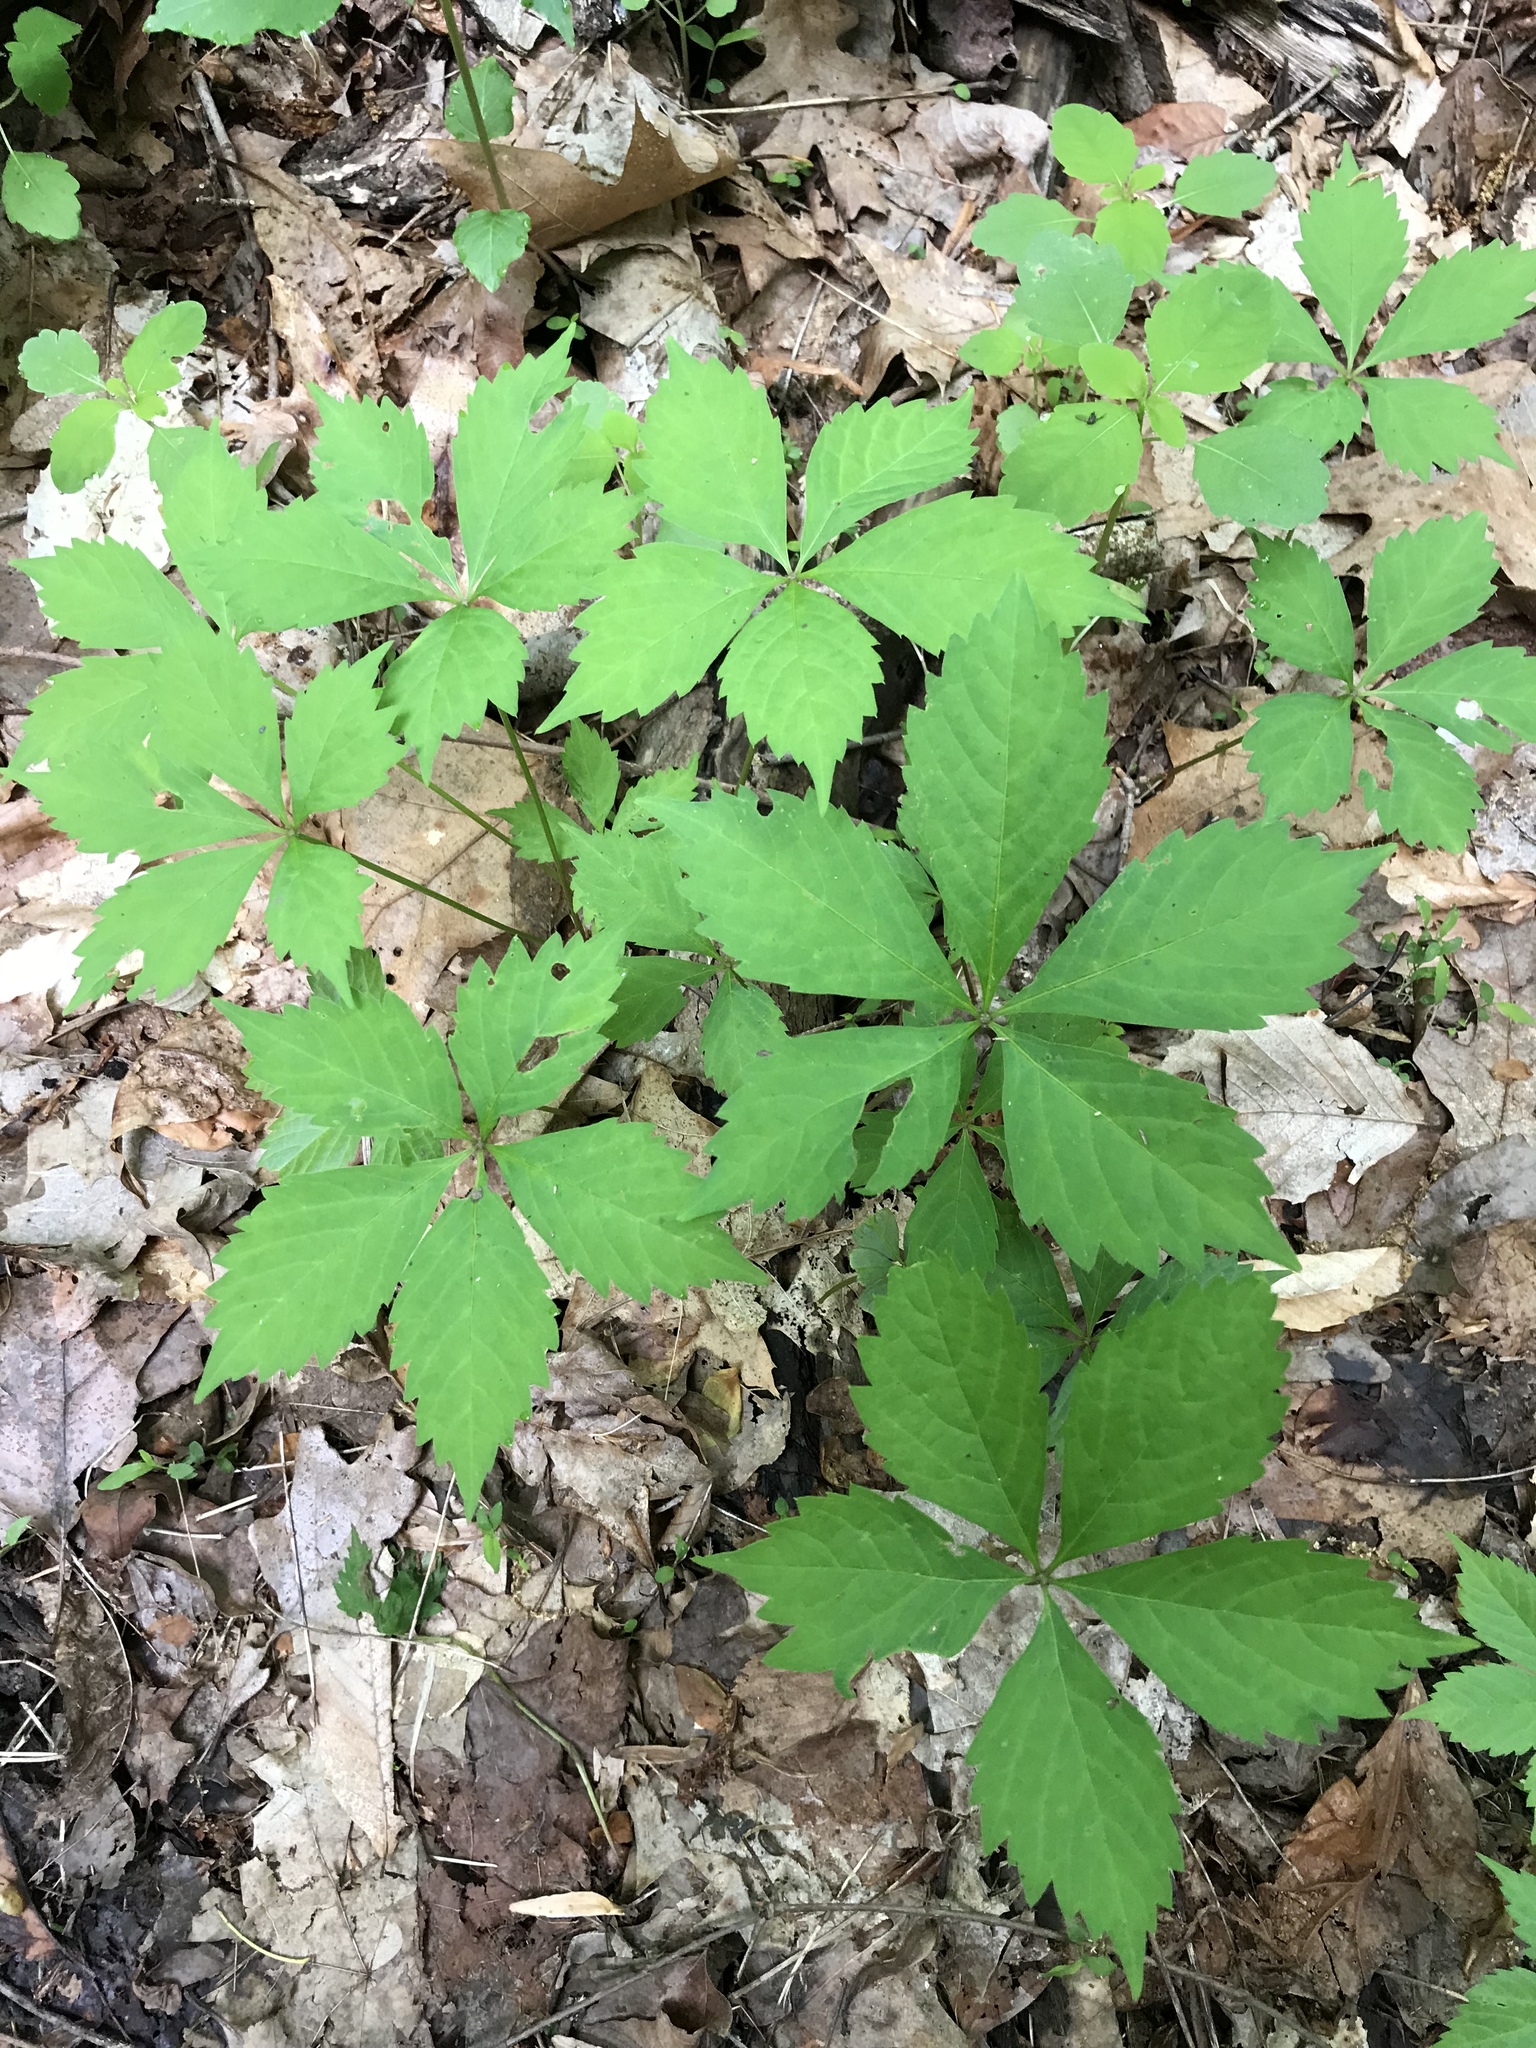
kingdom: Plantae
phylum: Tracheophyta
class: Magnoliopsida
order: Vitales
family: Vitaceae
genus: Parthenocissus
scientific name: Parthenocissus quinquefolia
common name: Virginia-creeper
